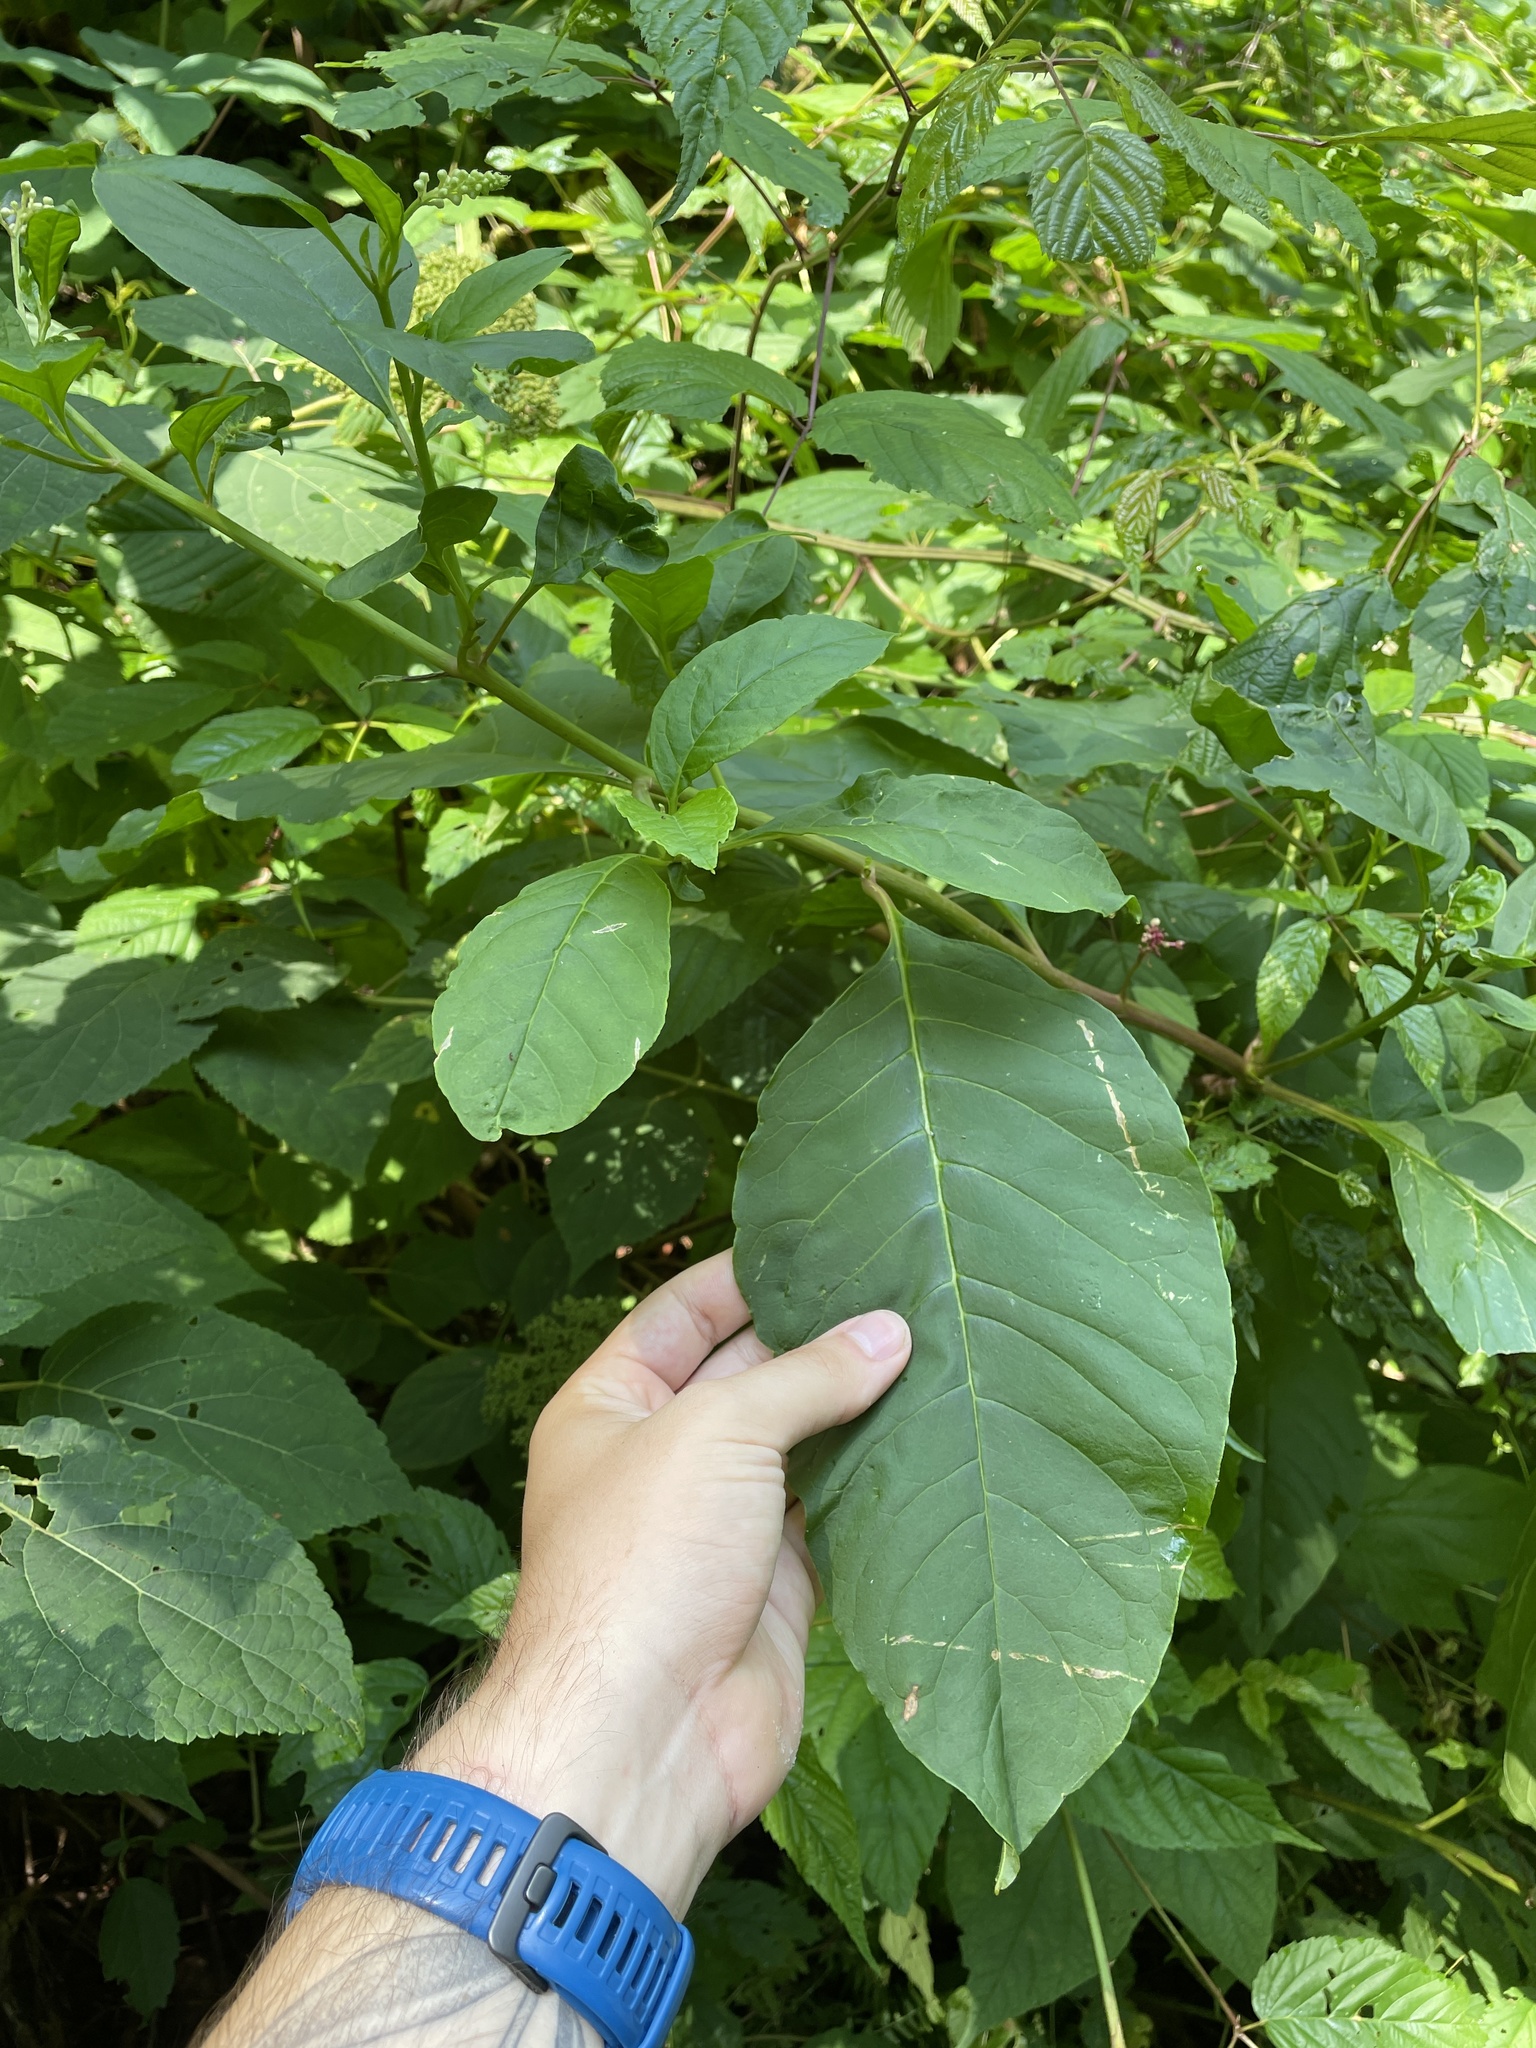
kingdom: Plantae
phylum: Tracheophyta
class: Magnoliopsida
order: Caryophyllales
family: Phytolaccaceae
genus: Phytolacca
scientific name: Phytolacca americana
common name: American pokeweed
